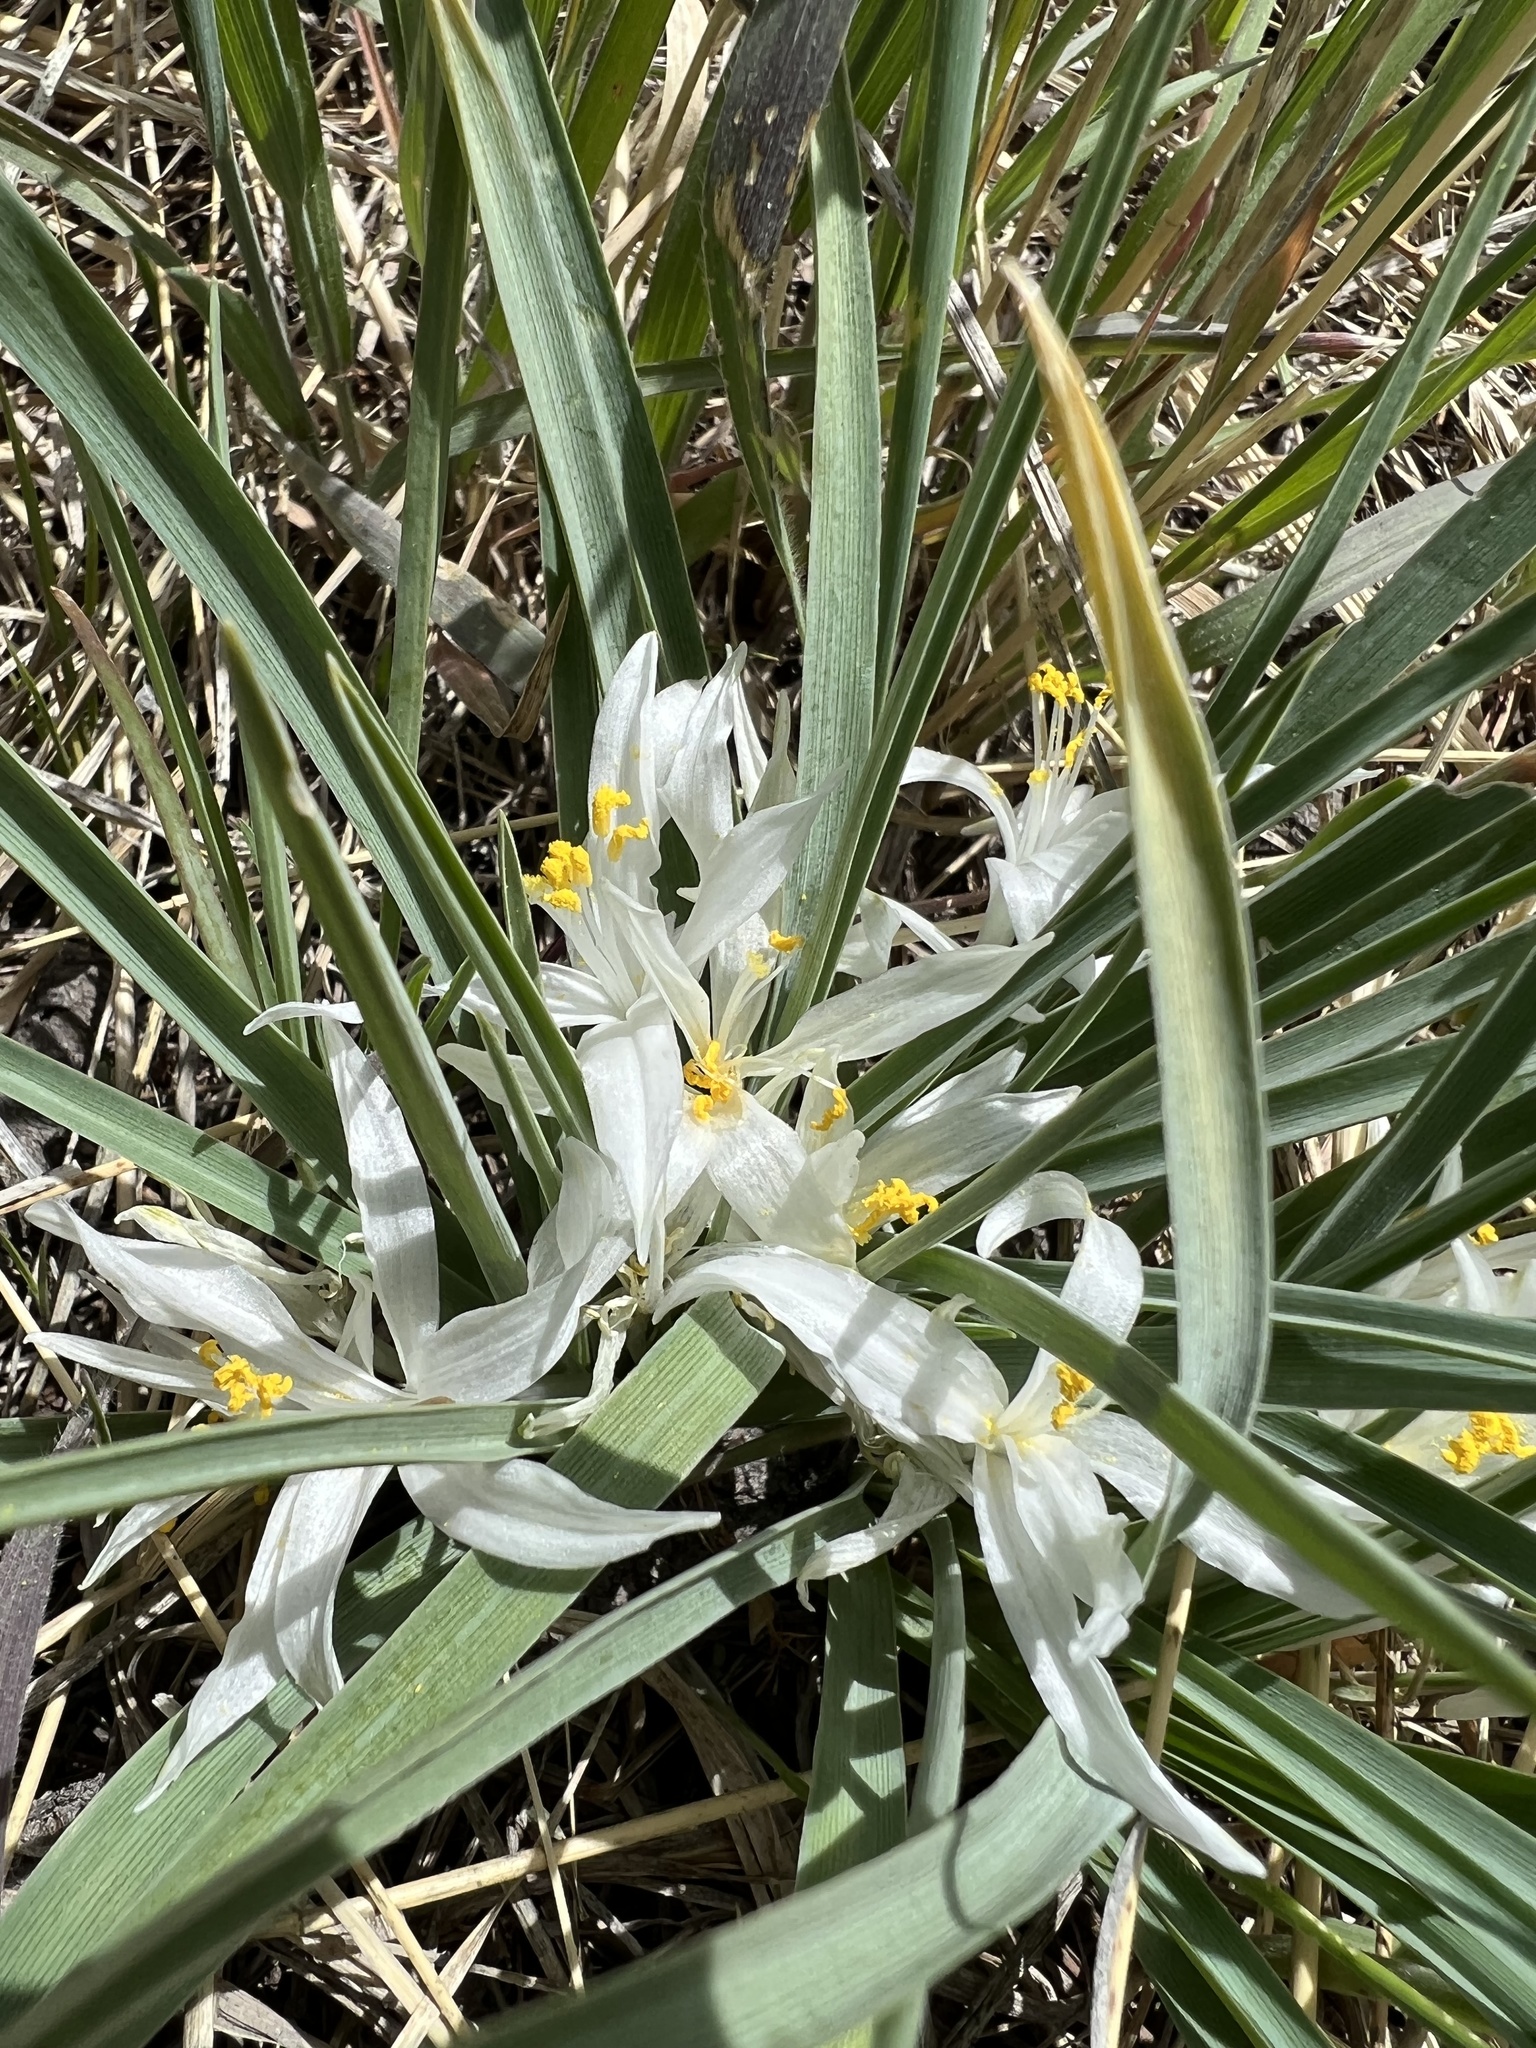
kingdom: Plantae
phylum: Tracheophyta
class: Liliopsida
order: Asparagales
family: Asparagaceae
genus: Leucocrinum
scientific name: Leucocrinum montanum
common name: Mountain-lily
